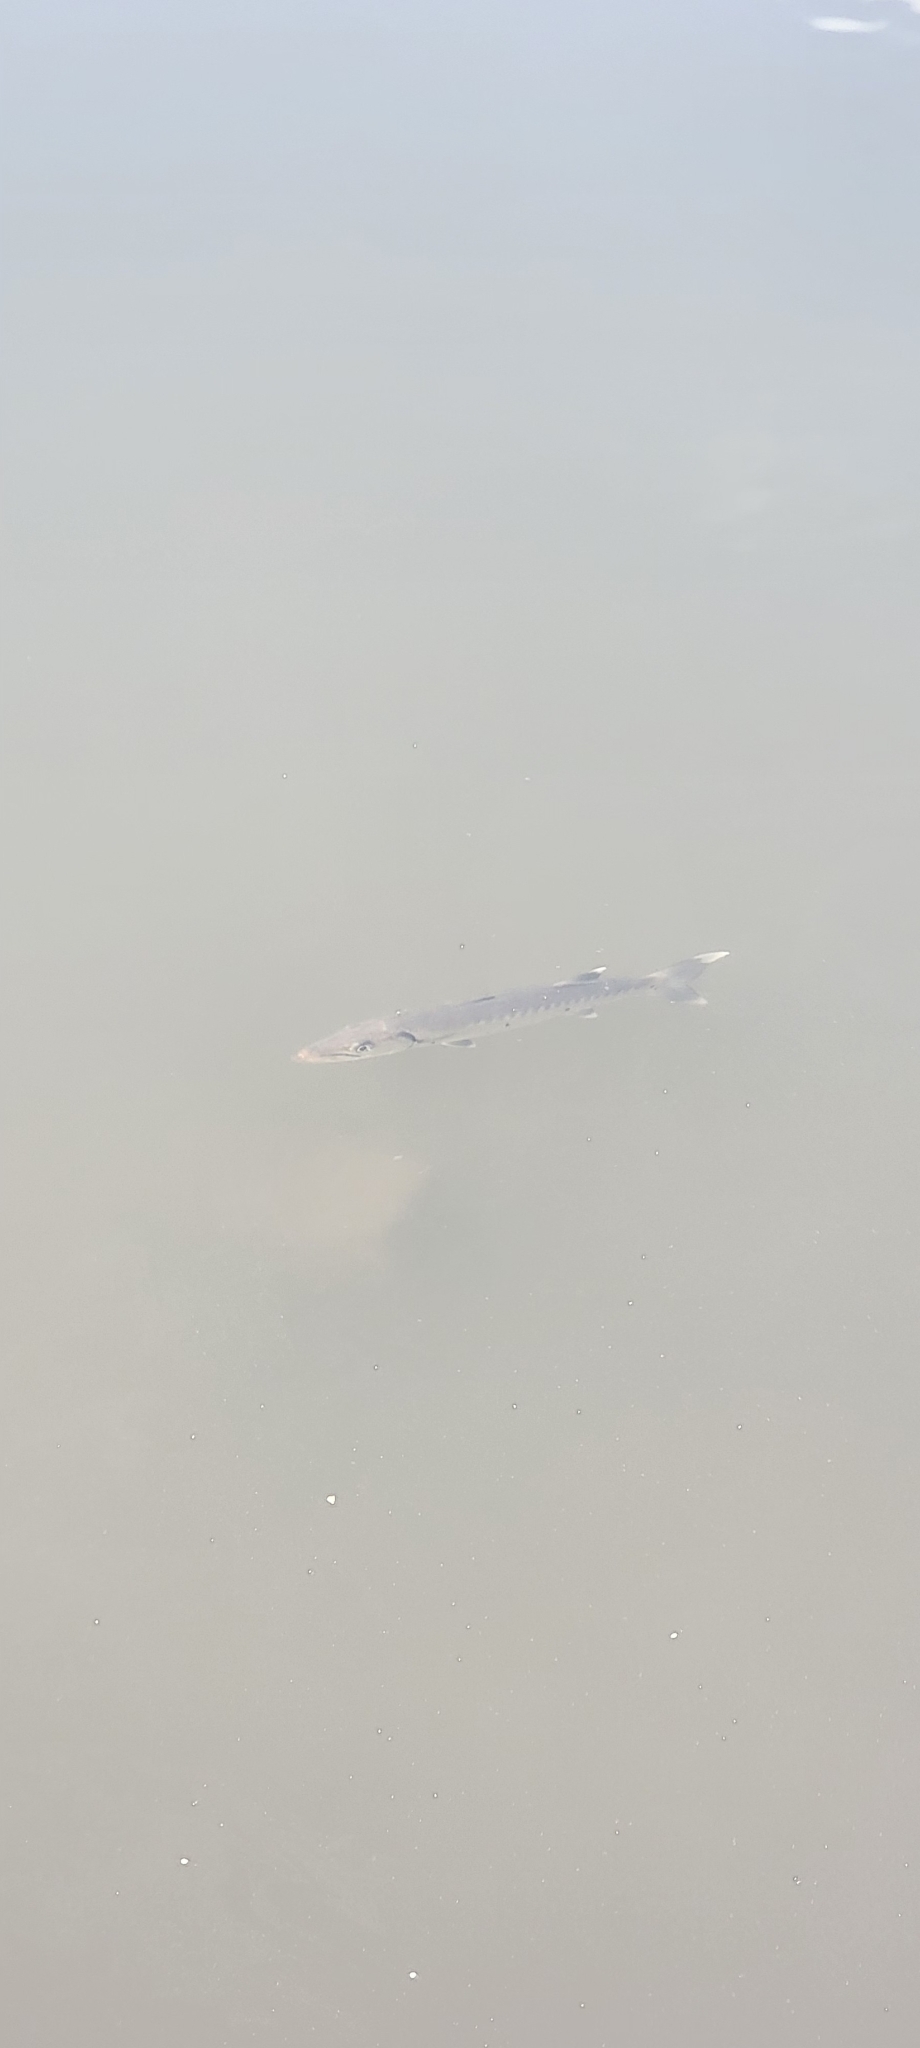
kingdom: Animalia
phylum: Chordata
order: Perciformes
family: Sphyraenidae
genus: Sphyraena
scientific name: Sphyraena barracuda
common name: Great barracuda
